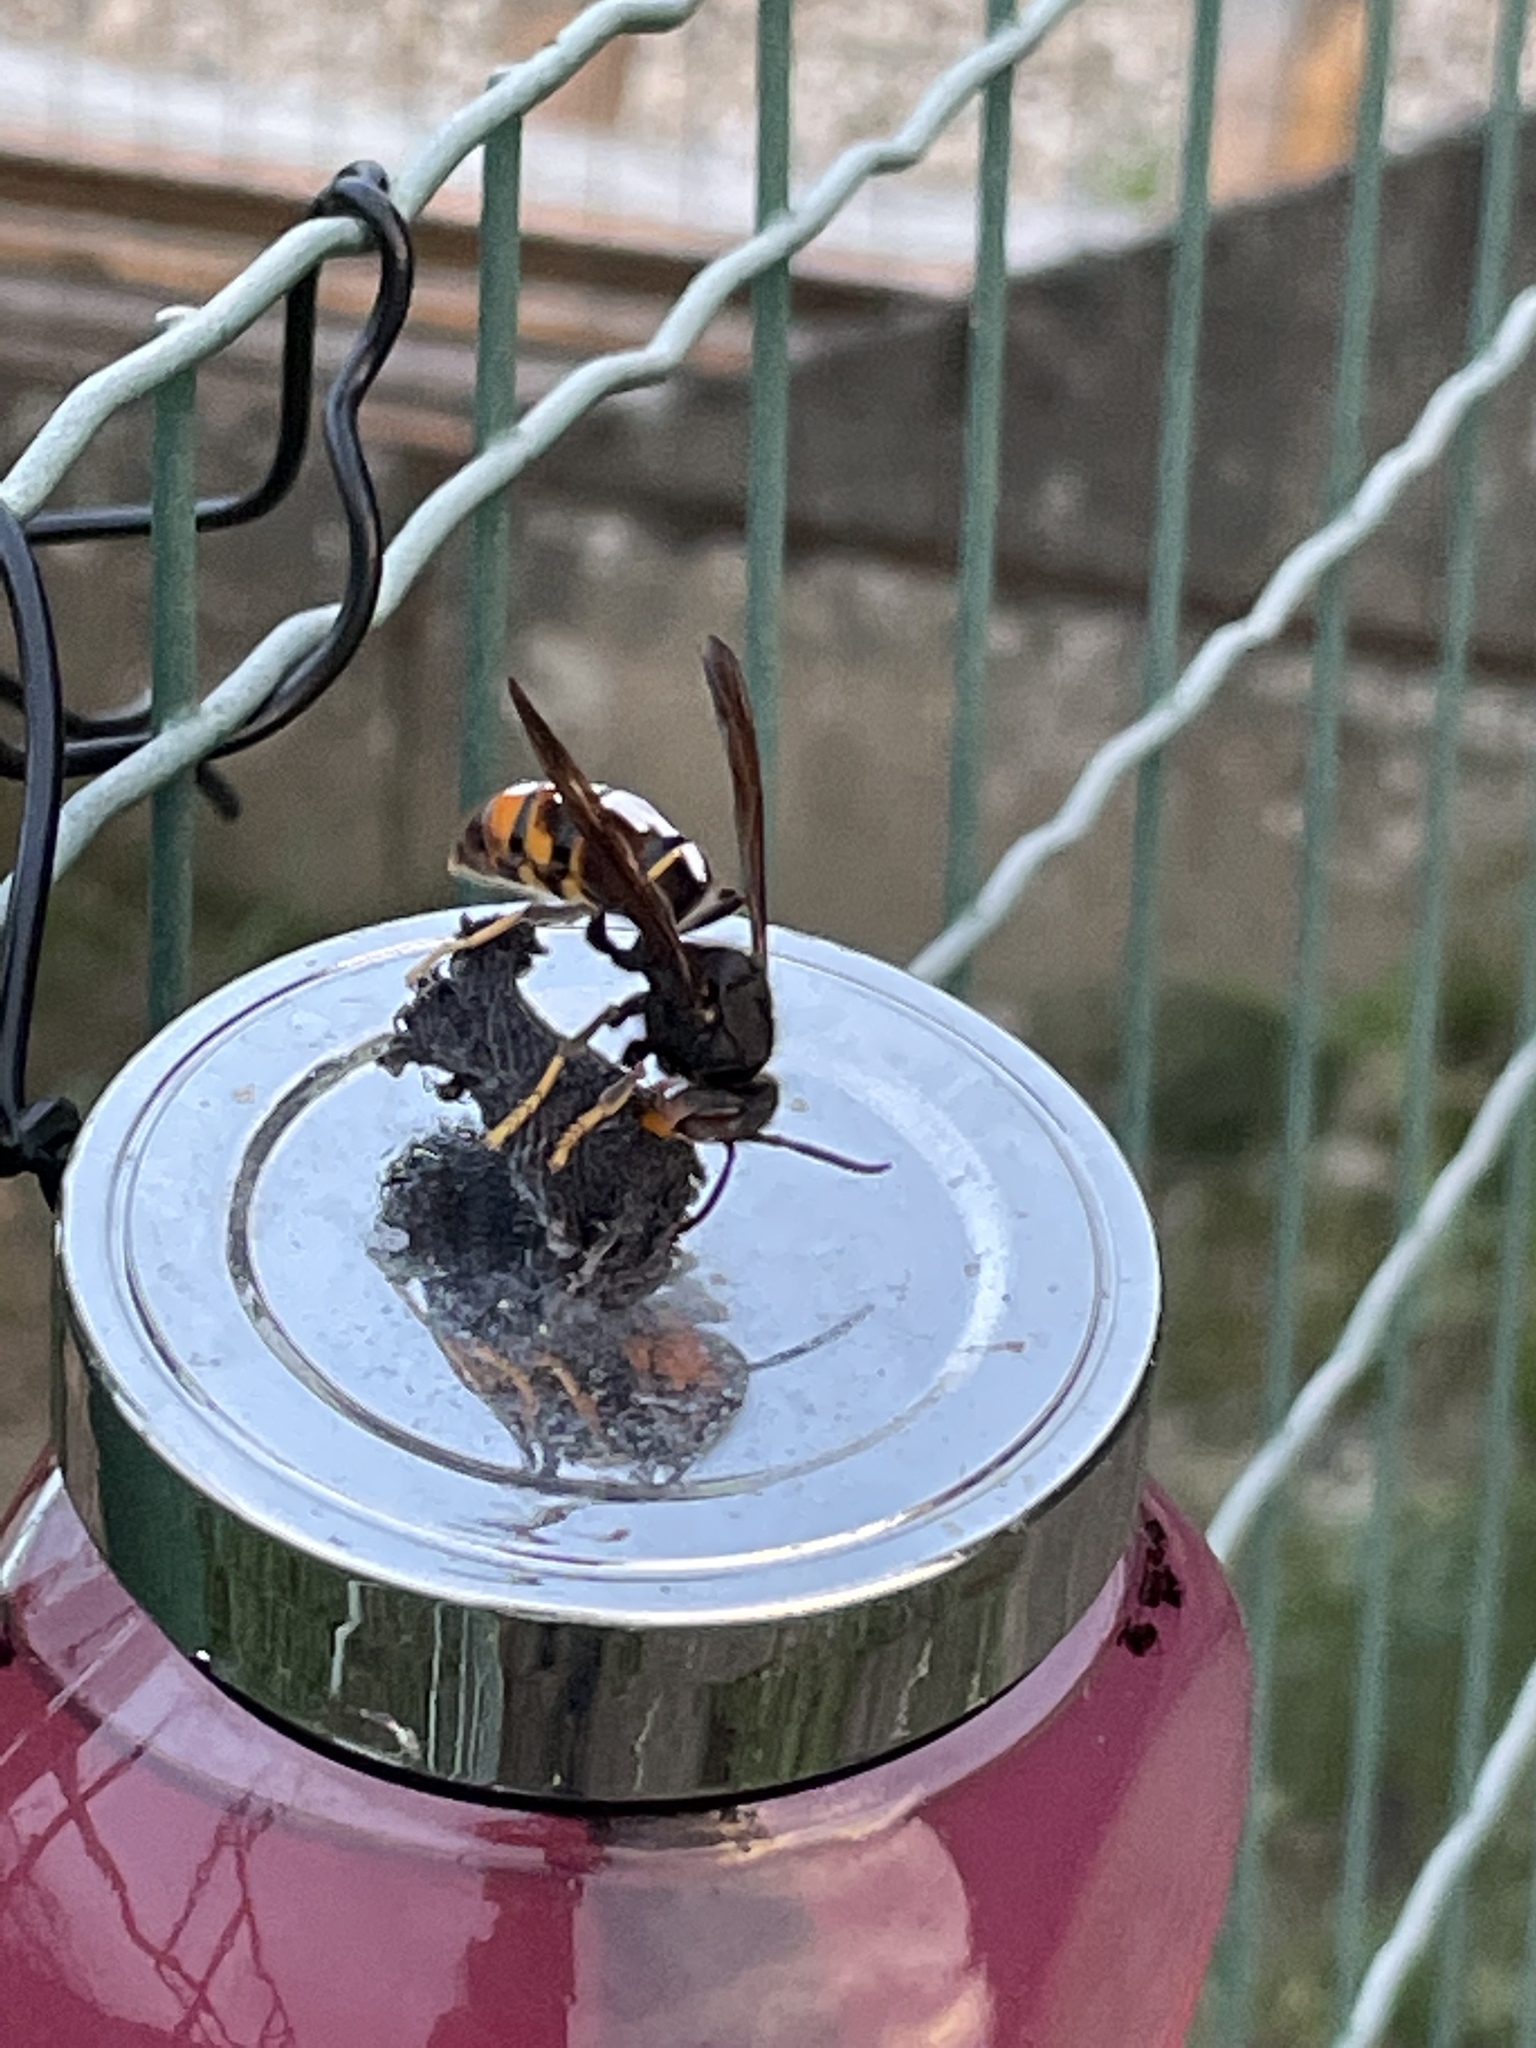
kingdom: Animalia
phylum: Arthropoda
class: Insecta
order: Hymenoptera
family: Vespidae
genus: Vespa
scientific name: Vespa velutina
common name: Asian hornet
